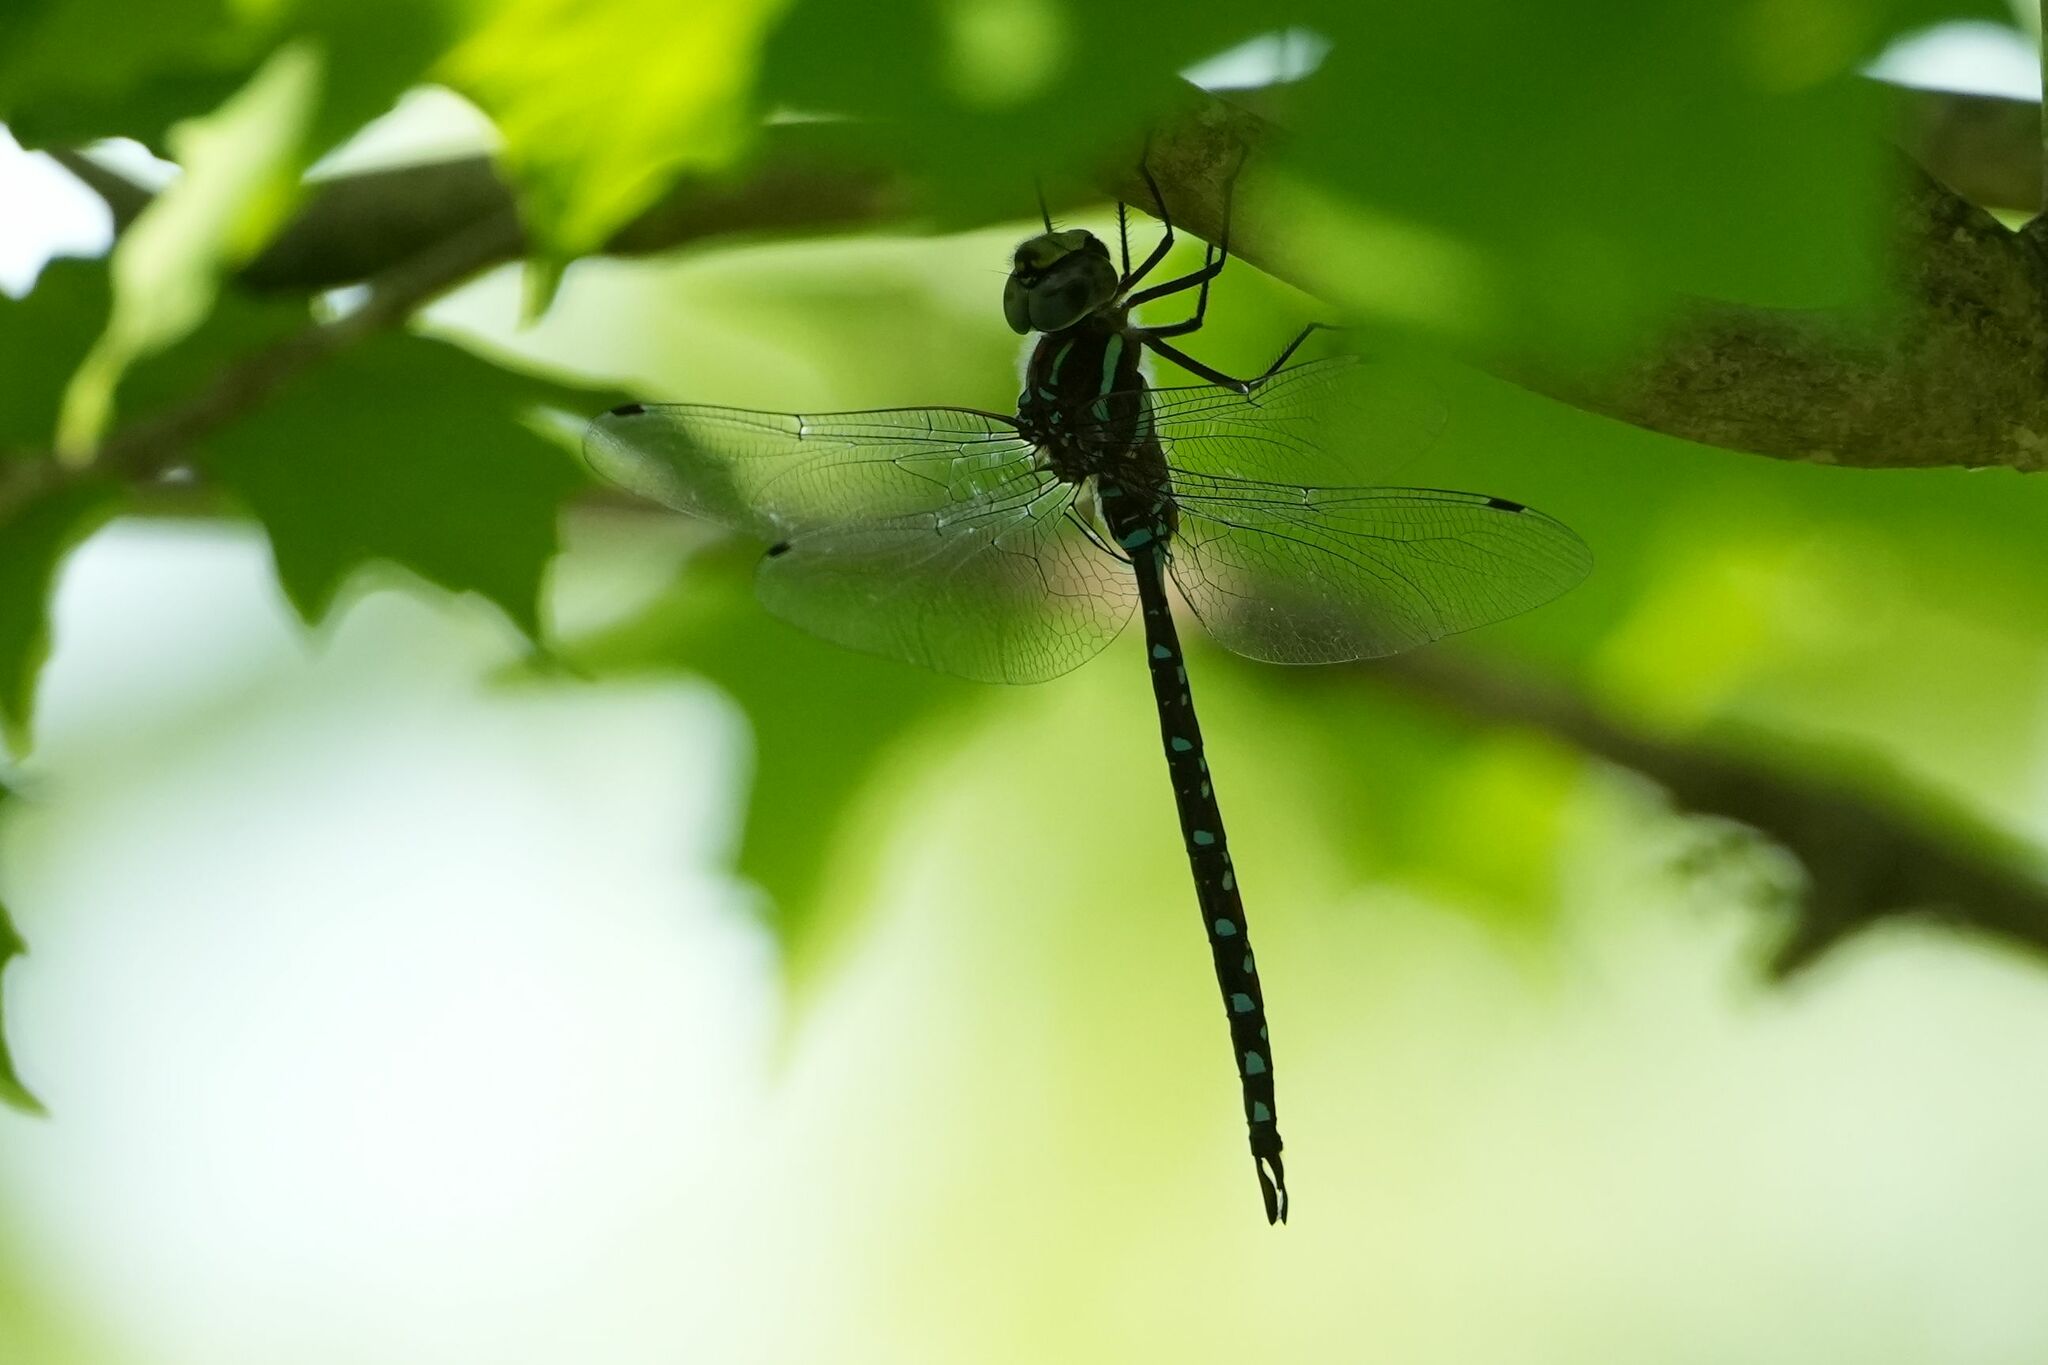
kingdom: Animalia
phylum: Arthropoda
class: Insecta
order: Odonata
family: Aeshnidae
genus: Aeshna
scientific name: Aeshna tuberculifera
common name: Aeschne à tubercules
